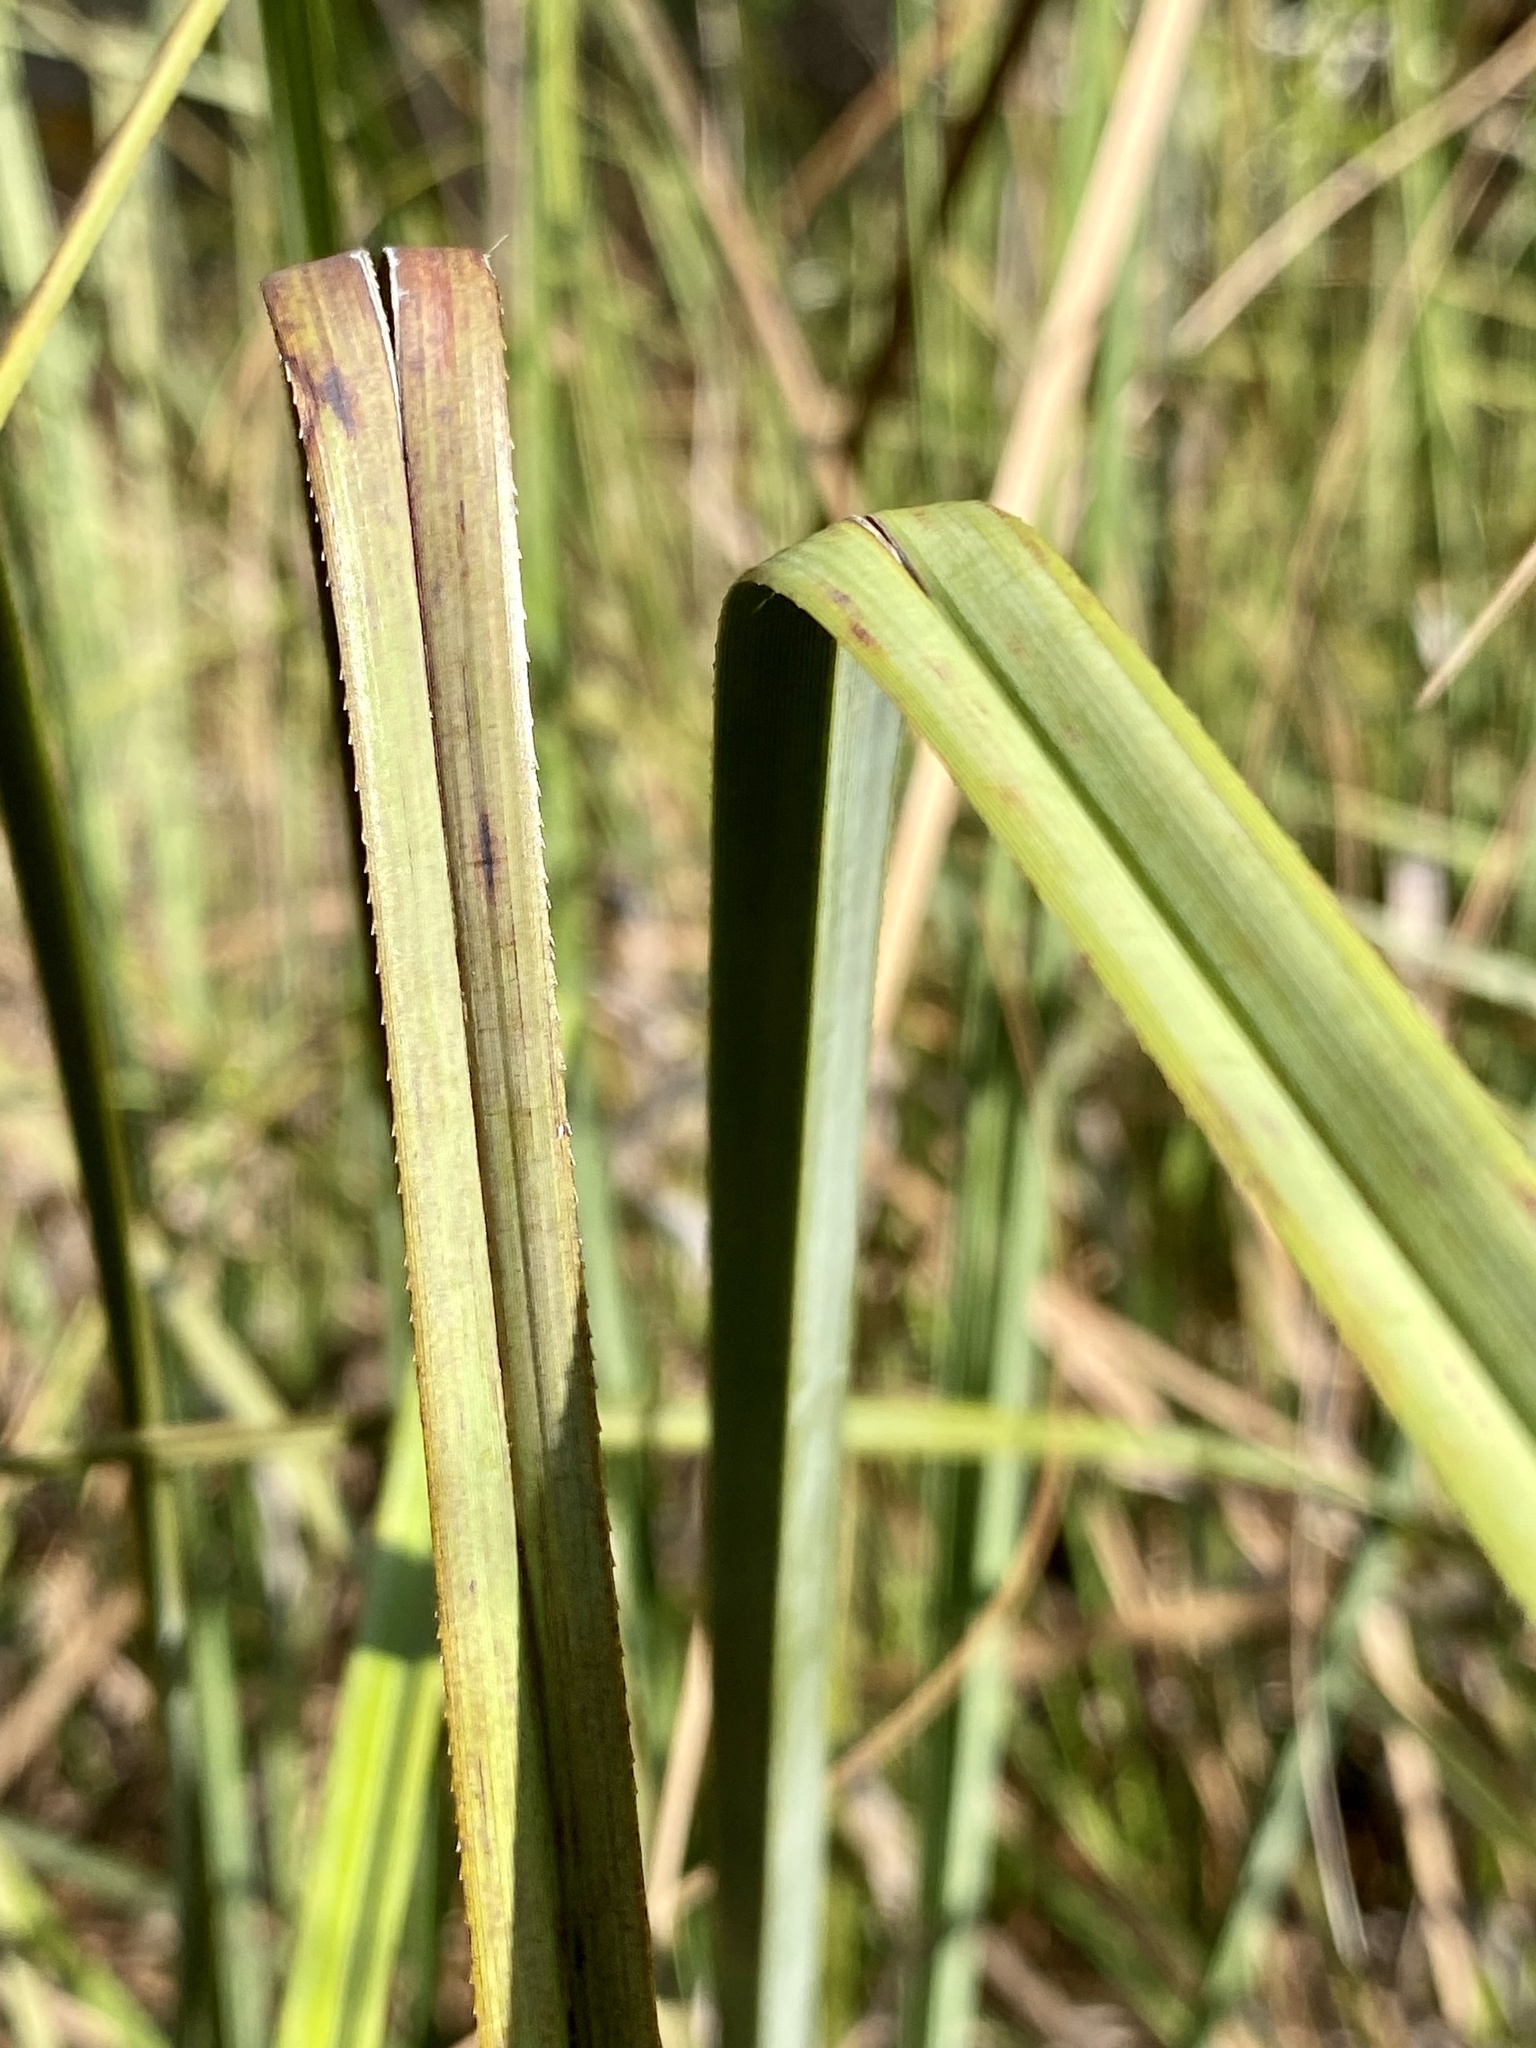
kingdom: Plantae
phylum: Tracheophyta
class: Liliopsida
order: Poales
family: Cyperaceae
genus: Cladium
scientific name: Cladium mariscus
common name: Great fen-sedge
